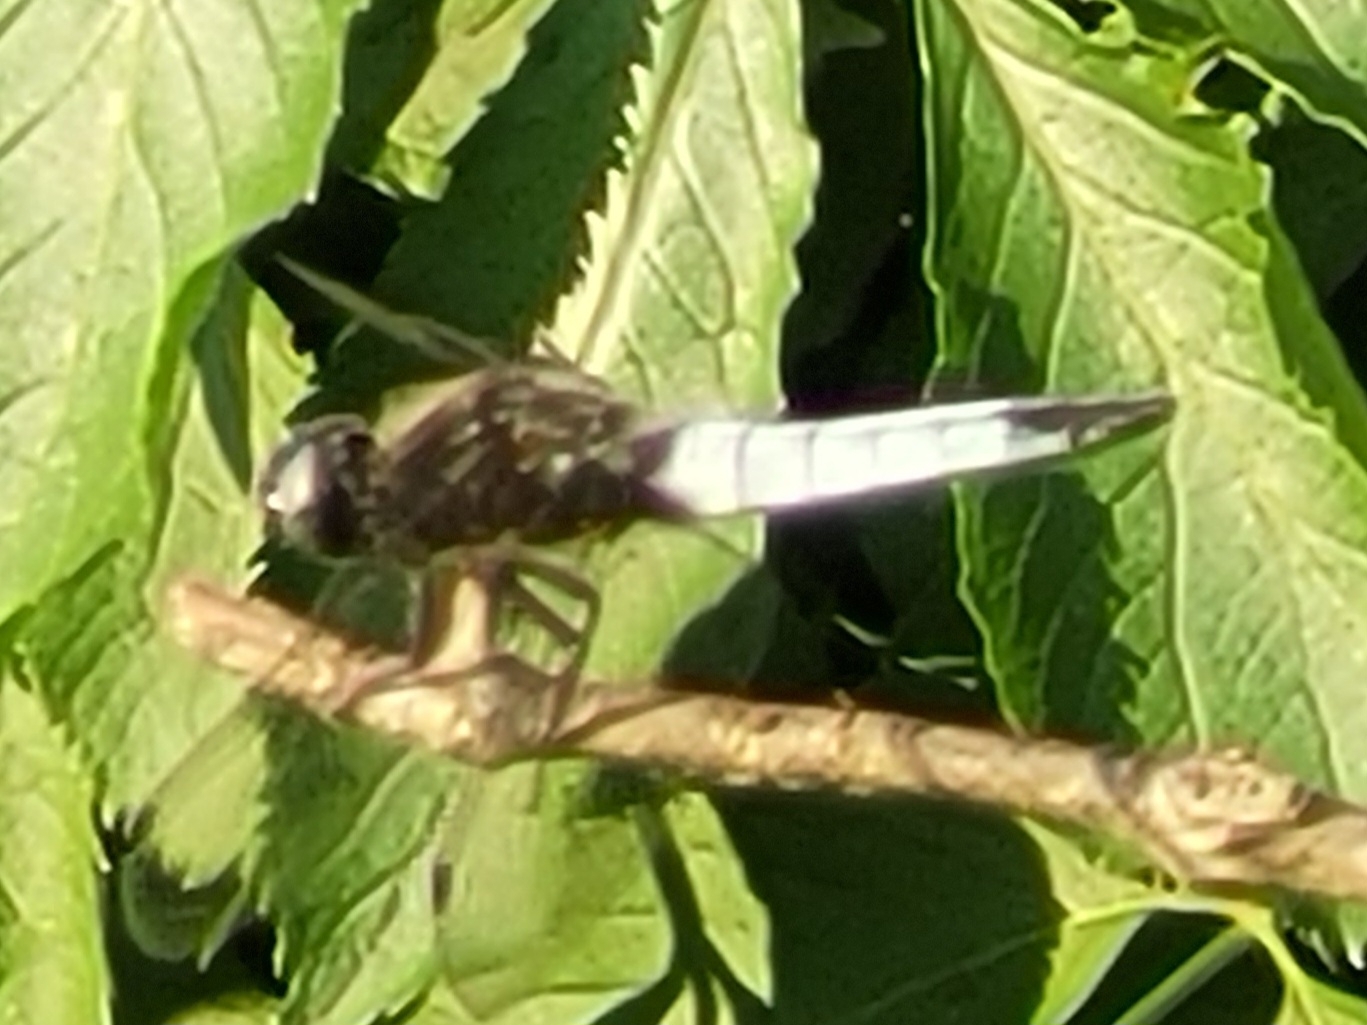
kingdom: Animalia
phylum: Arthropoda
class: Insecta
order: Odonata
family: Libellulidae
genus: Libellula
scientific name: Libellula fulva
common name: Blue chaser
